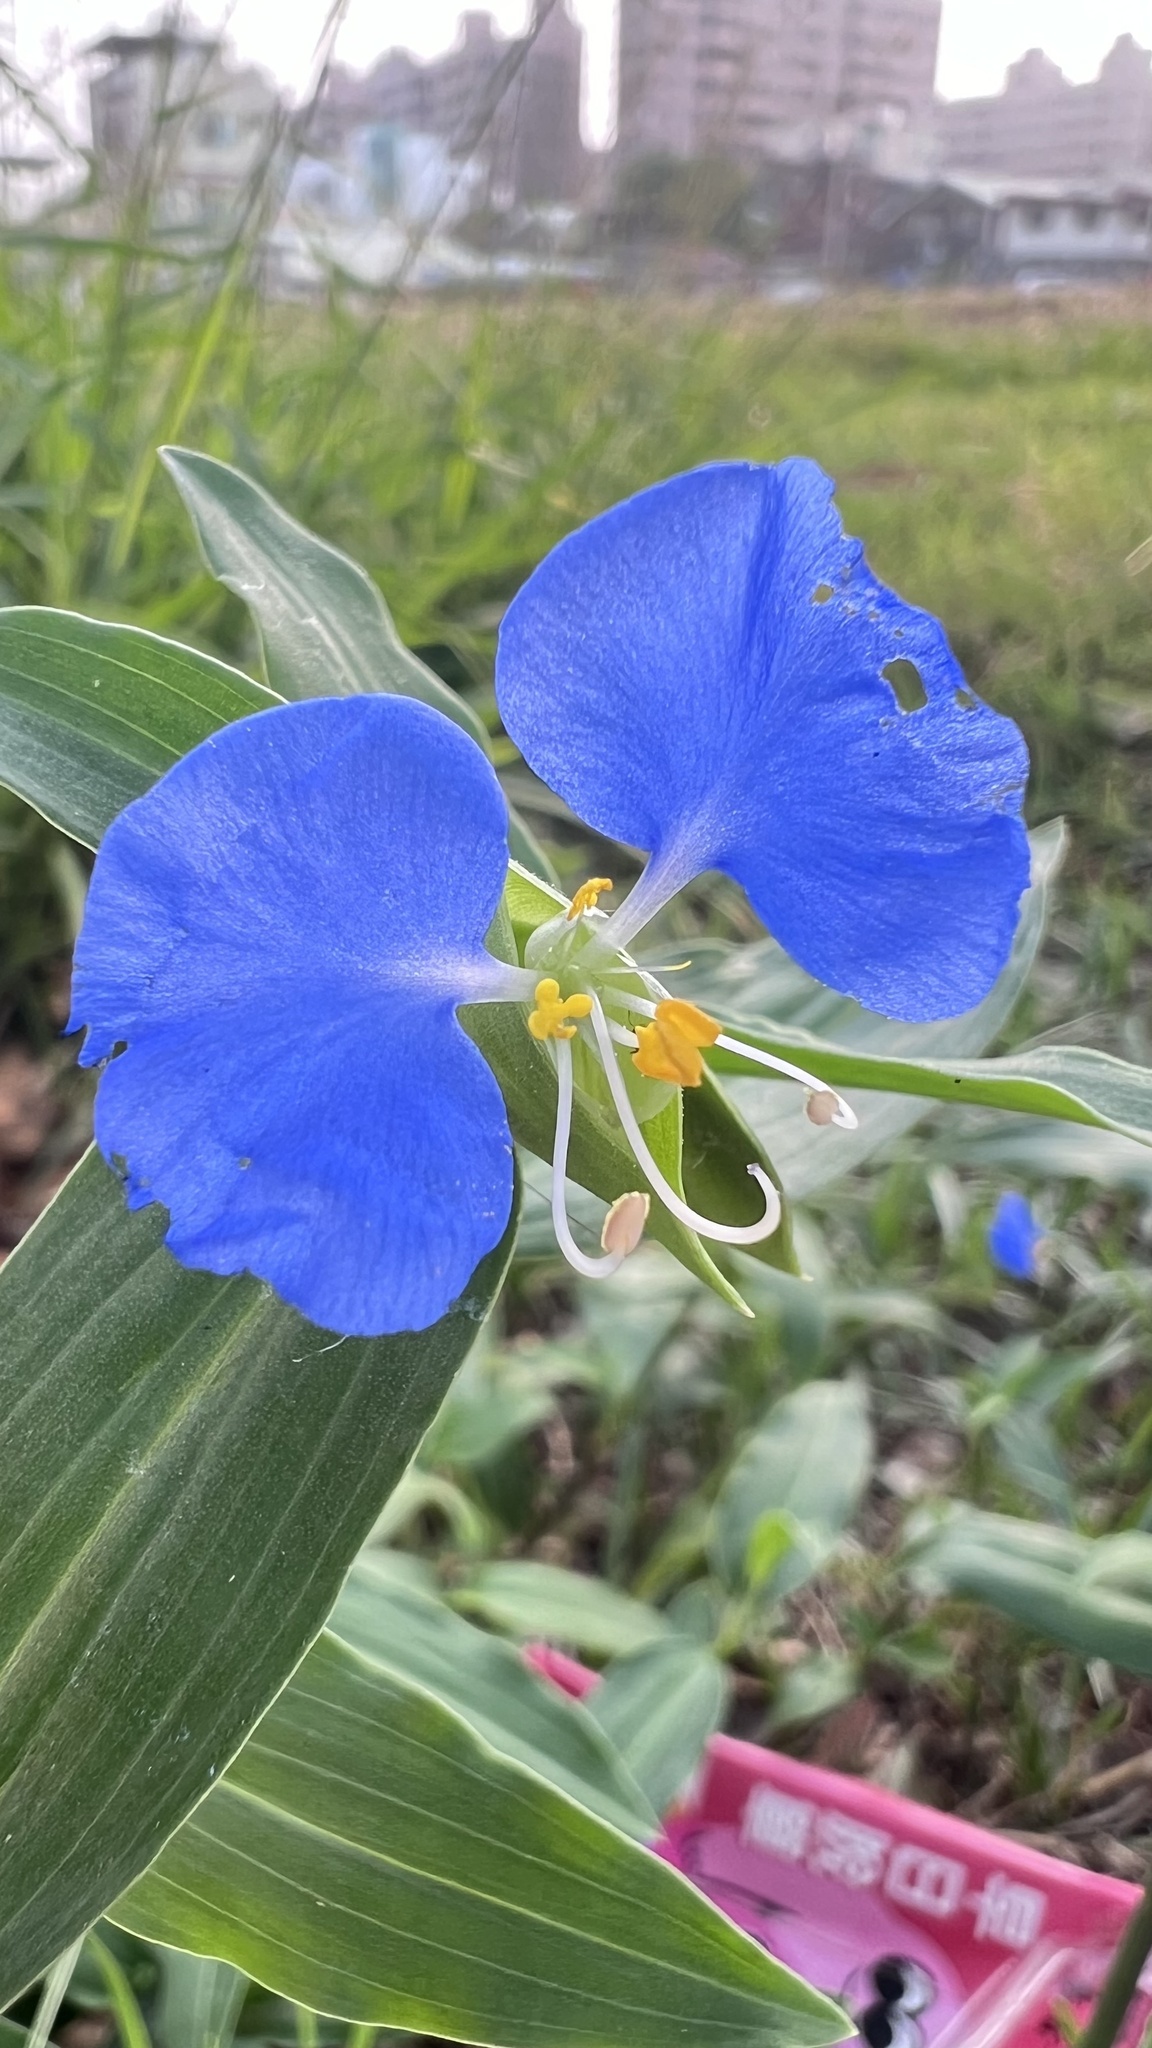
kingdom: Plantae
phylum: Tracheophyta
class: Liliopsida
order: Commelinales
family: Commelinaceae
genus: Commelina
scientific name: Commelina erecta
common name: Blousel blommetjie
